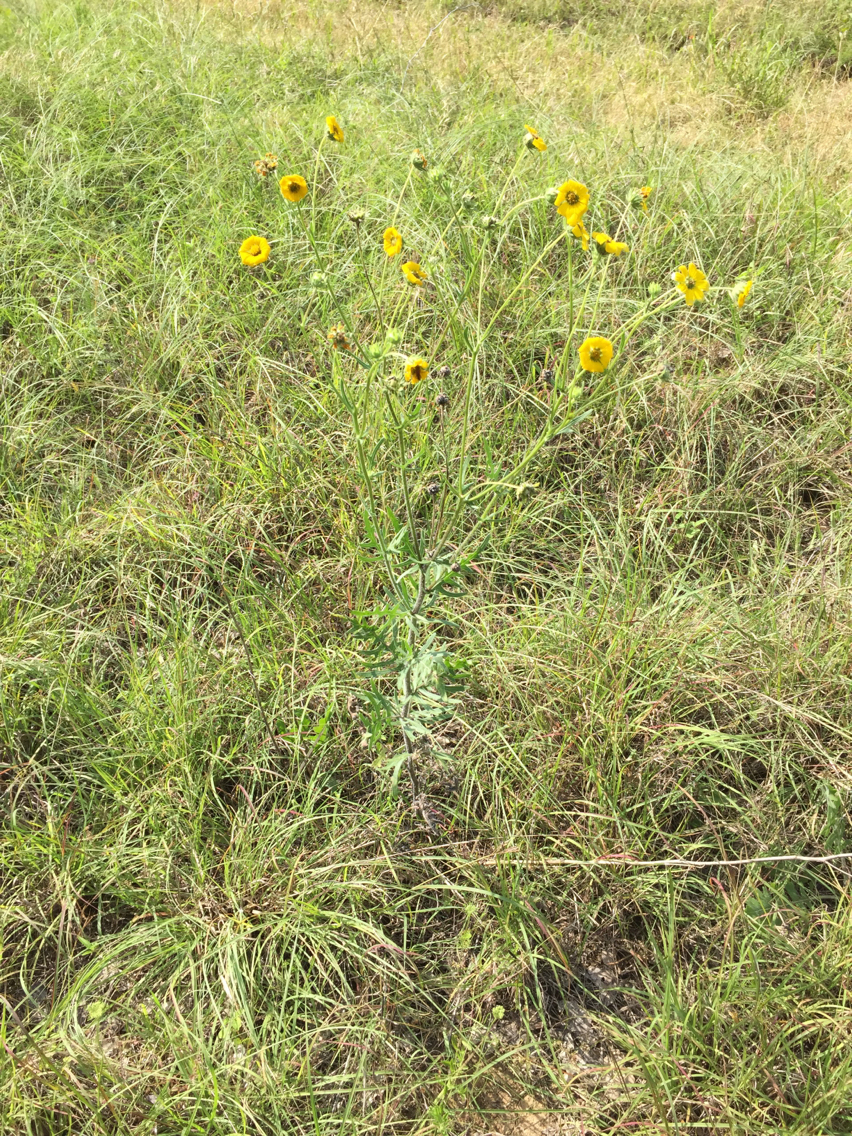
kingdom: Plantae
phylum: Tracheophyta
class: Magnoliopsida
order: Asterales
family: Asteraceae
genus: Engelmannia
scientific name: Engelmannia peristenia
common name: Engelmann's daisy
